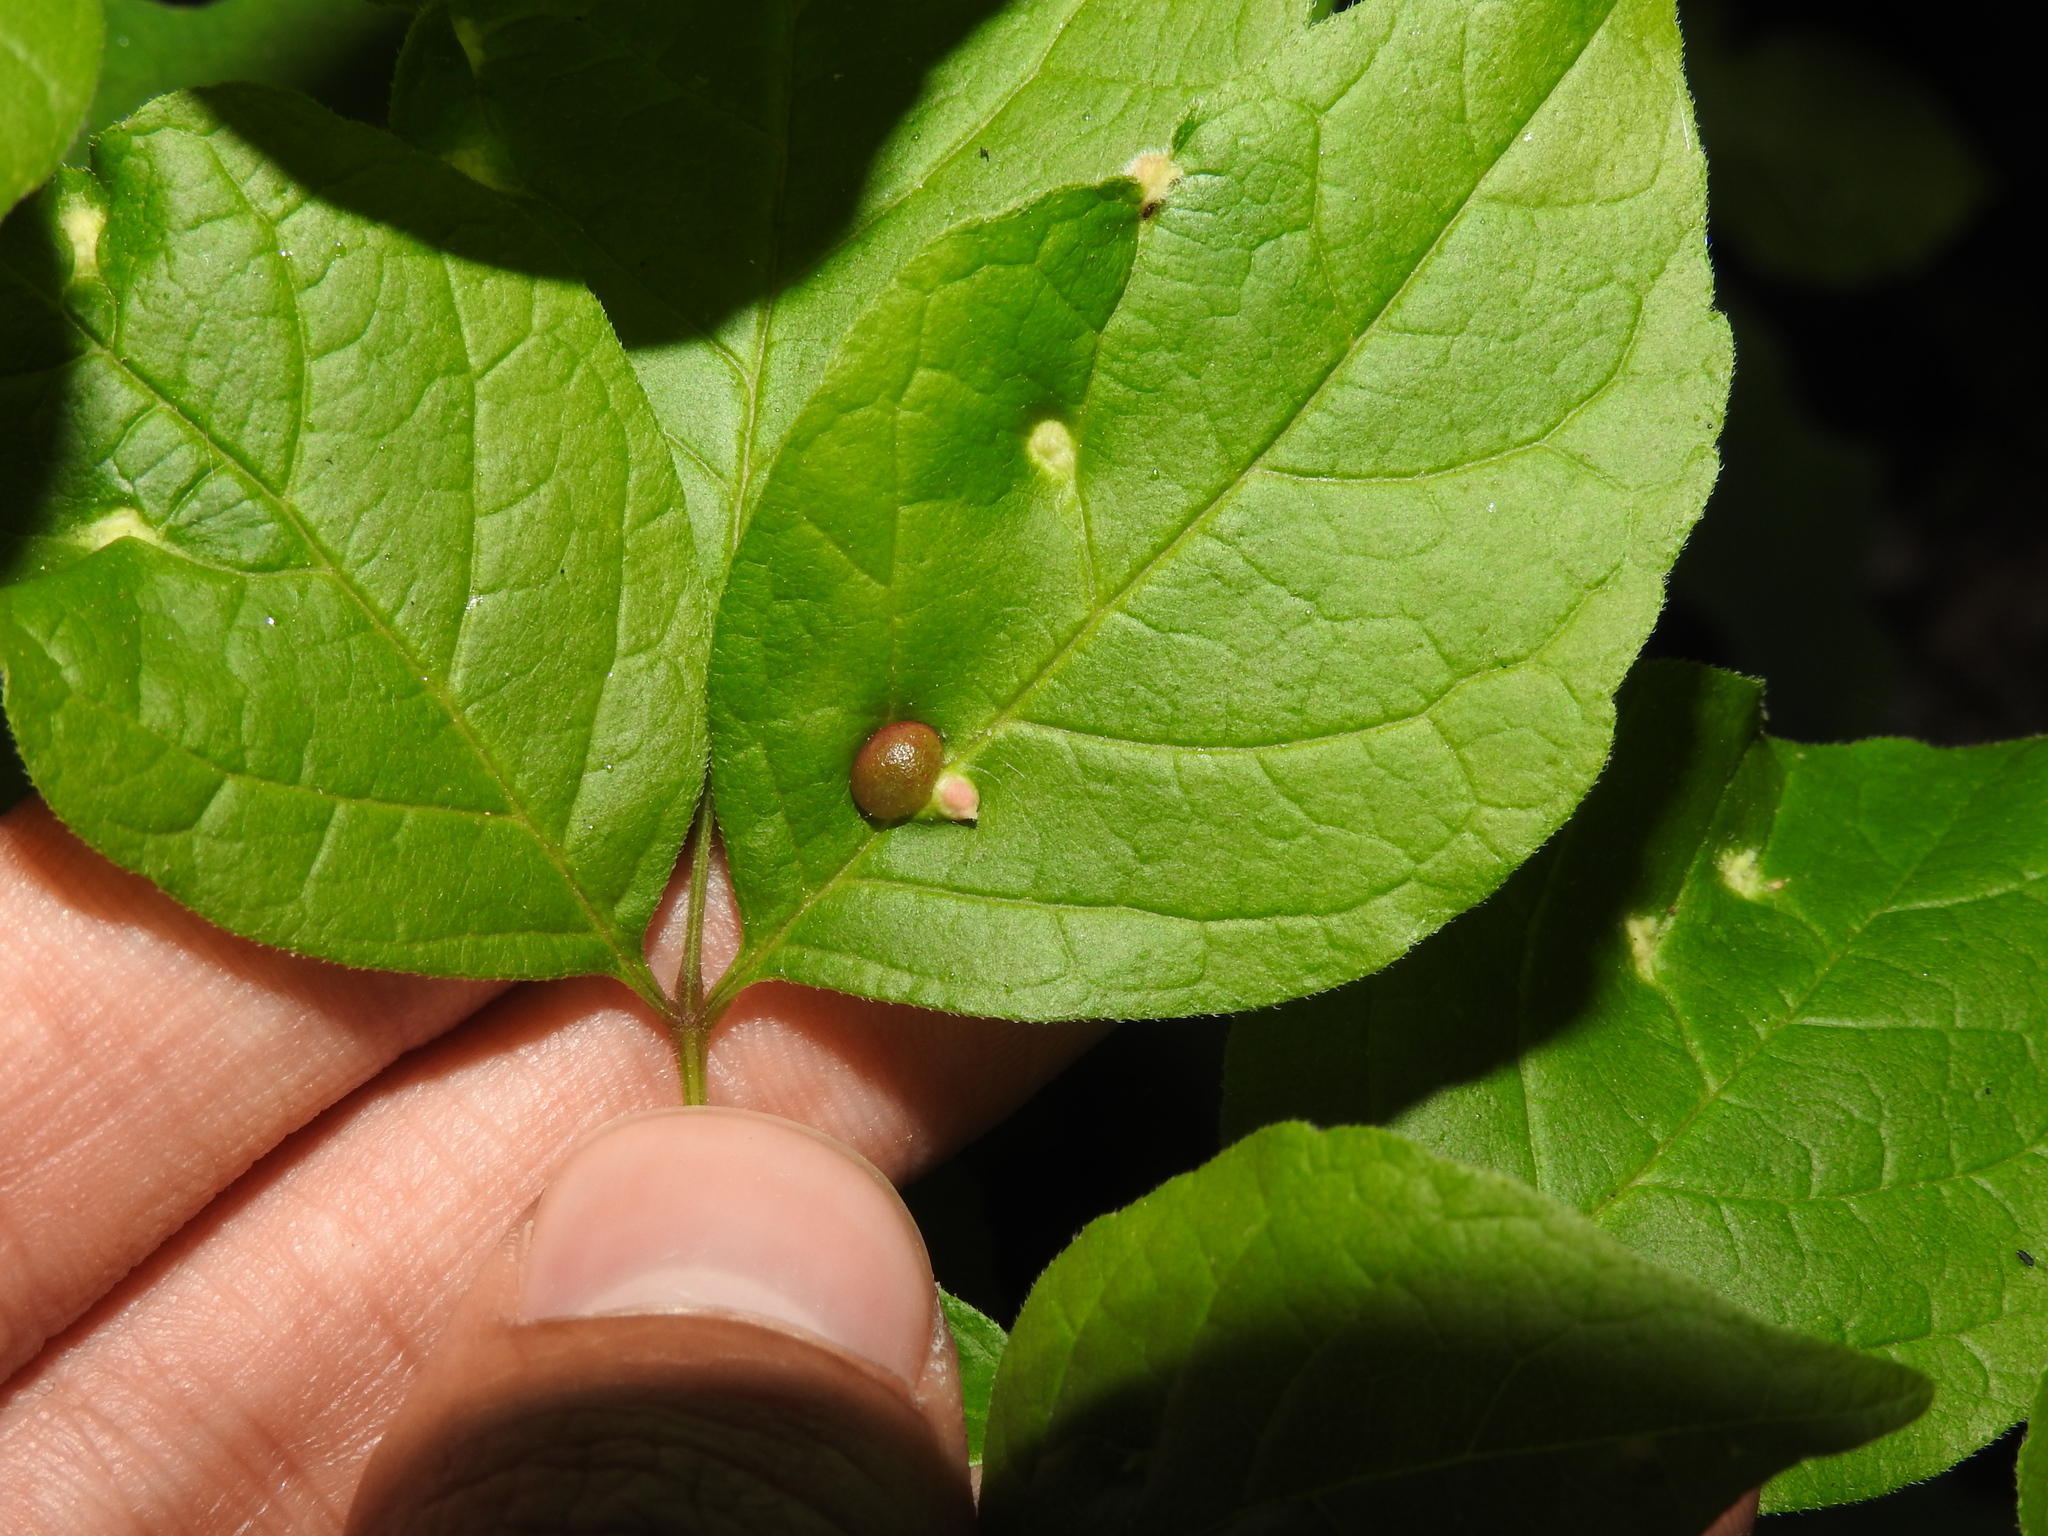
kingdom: Animalia
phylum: Arthropoda
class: Insecta
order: Diptera
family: Cecidomyiidae
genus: Dasineura
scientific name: Dasineura pellex
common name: Ash bullet gall midge
